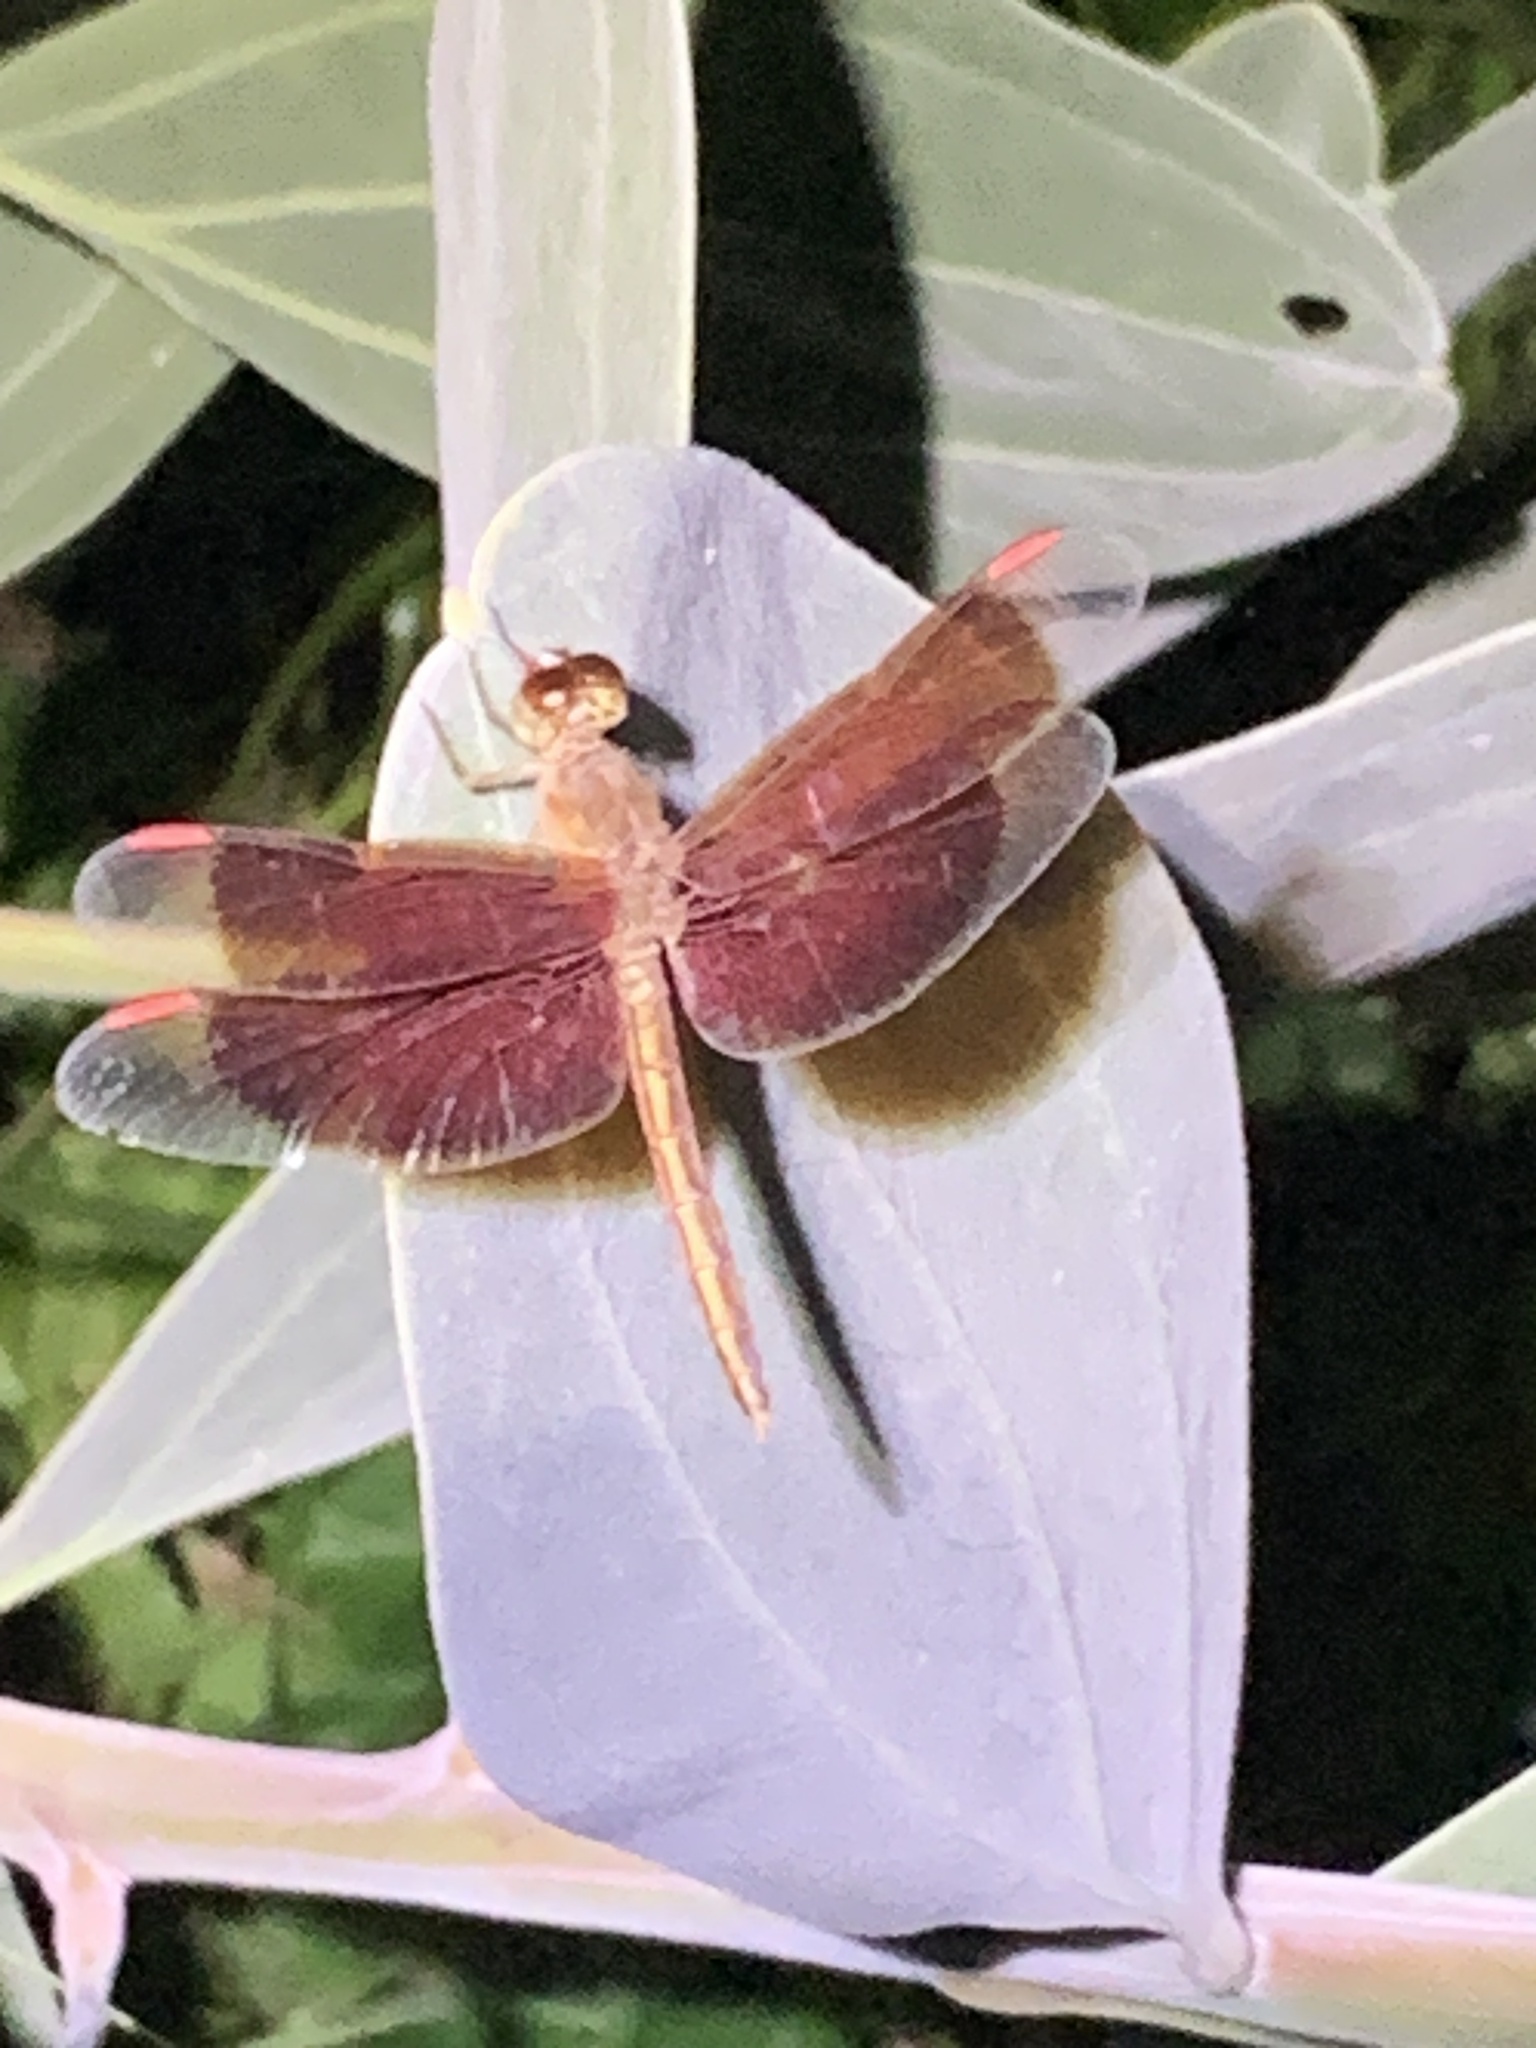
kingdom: Animalia
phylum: Arthropoda
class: Insecta
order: Odonata
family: Libellulidae
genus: Neurothemis
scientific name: Neurothemis stigmatizans
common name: Painted grasshawk
